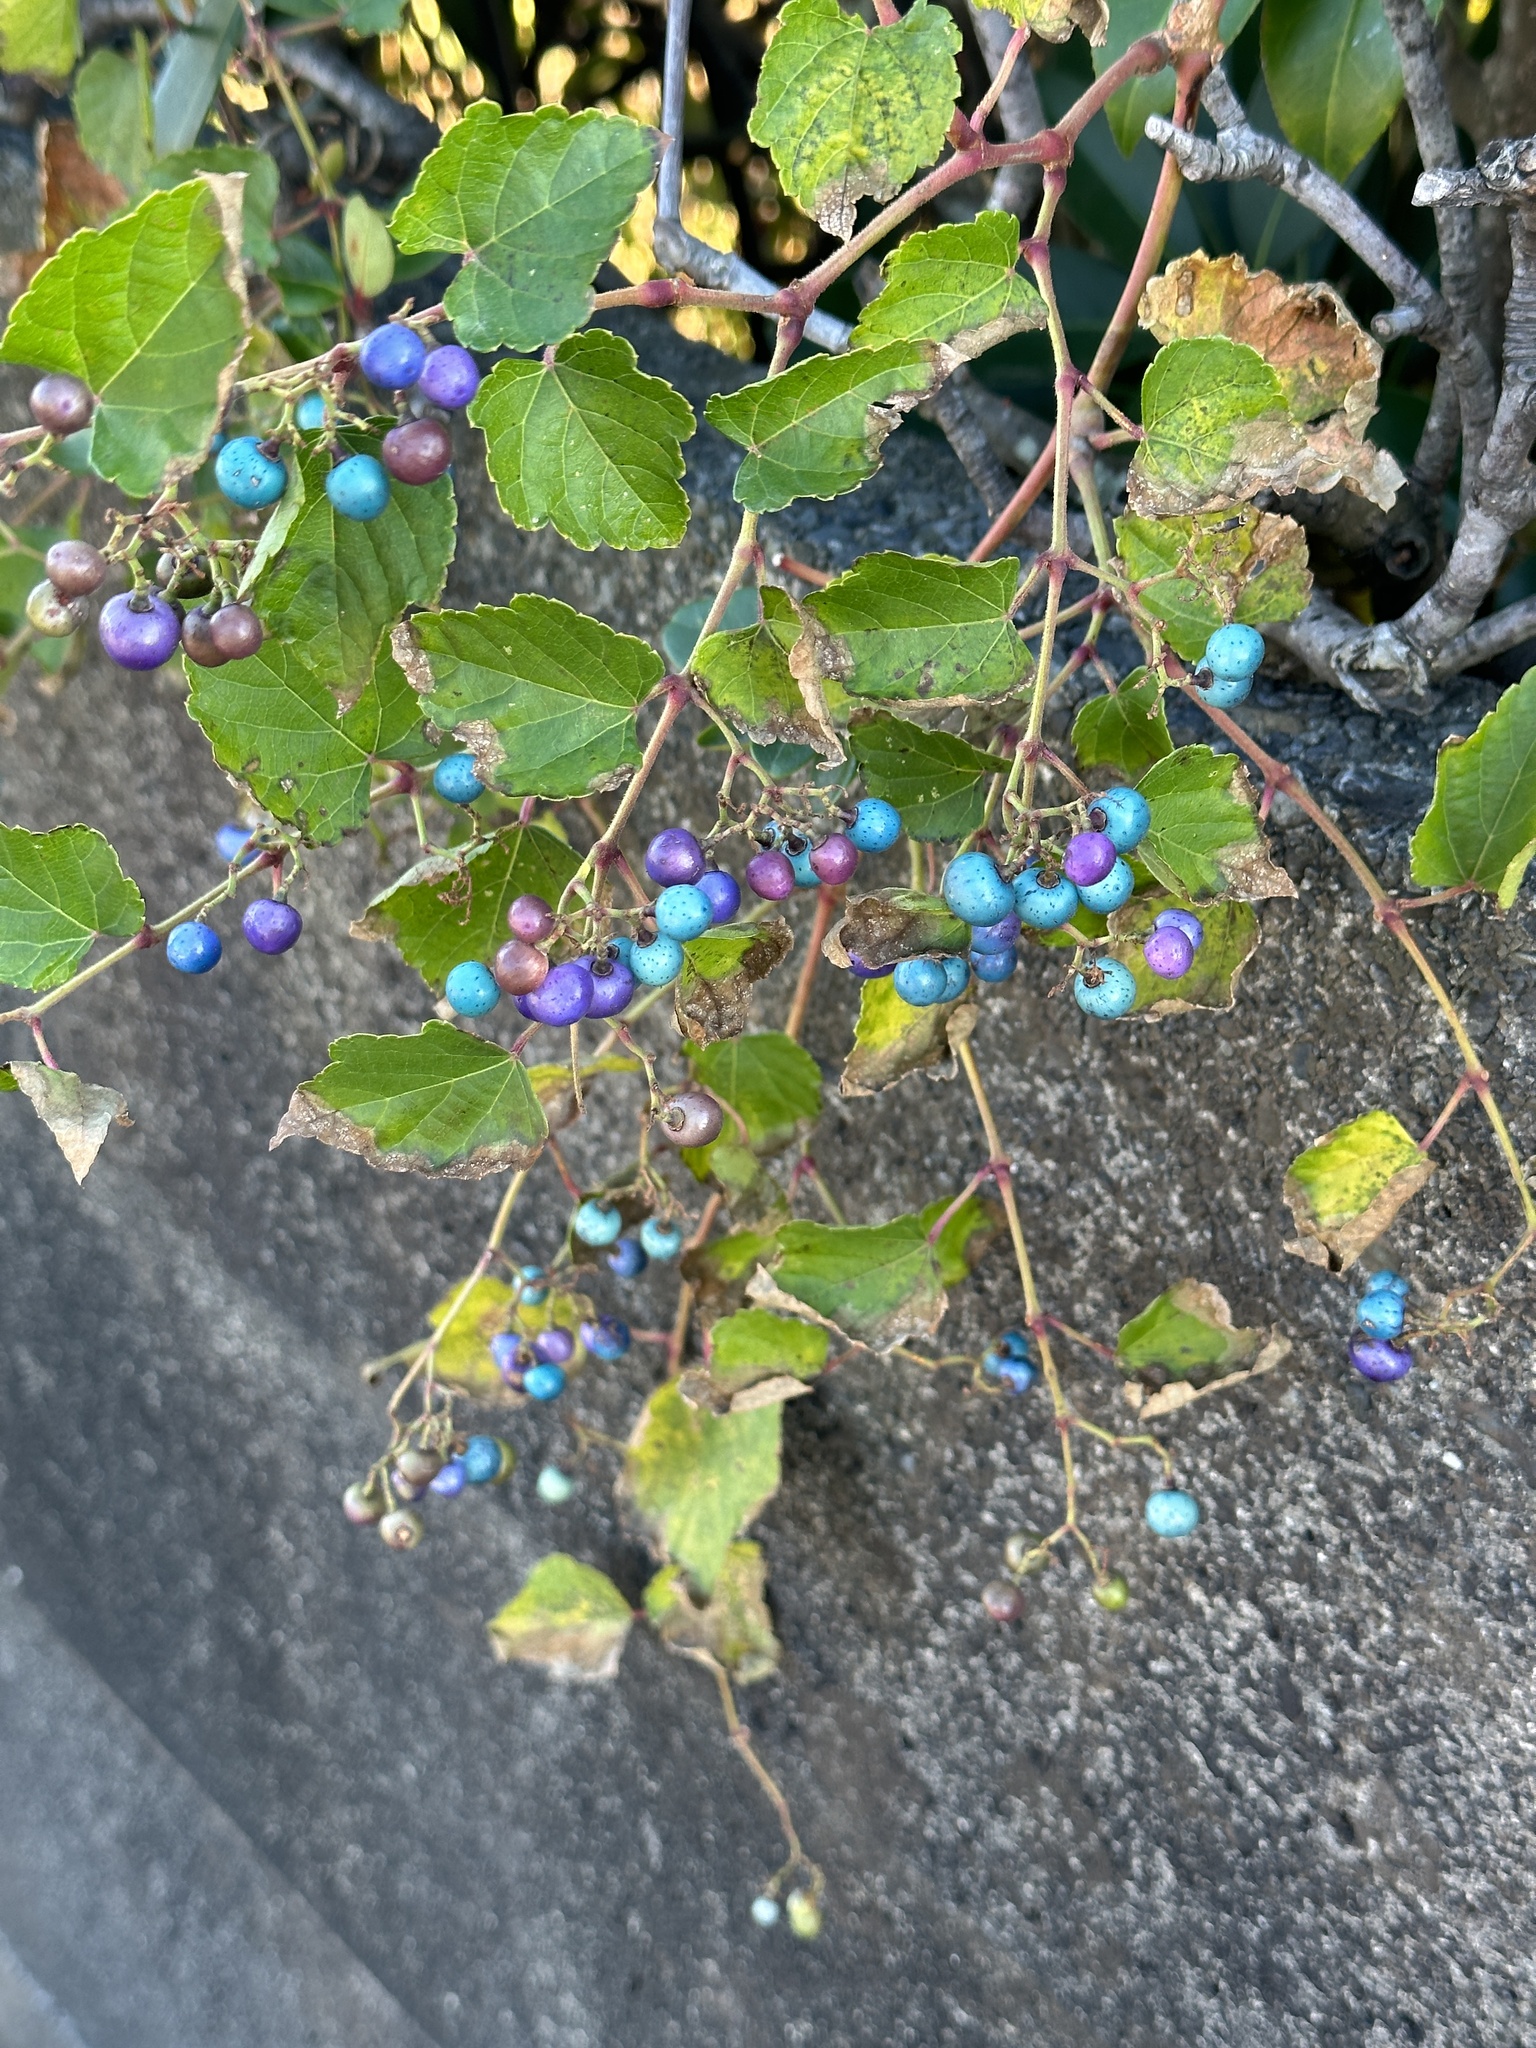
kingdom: Plantae
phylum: Tracheophyta
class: Magnoliopsida
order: Vitales
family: Vitaceae
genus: Ampelopsis
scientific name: Ampelopsis glandulosa
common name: Amur peppervine
